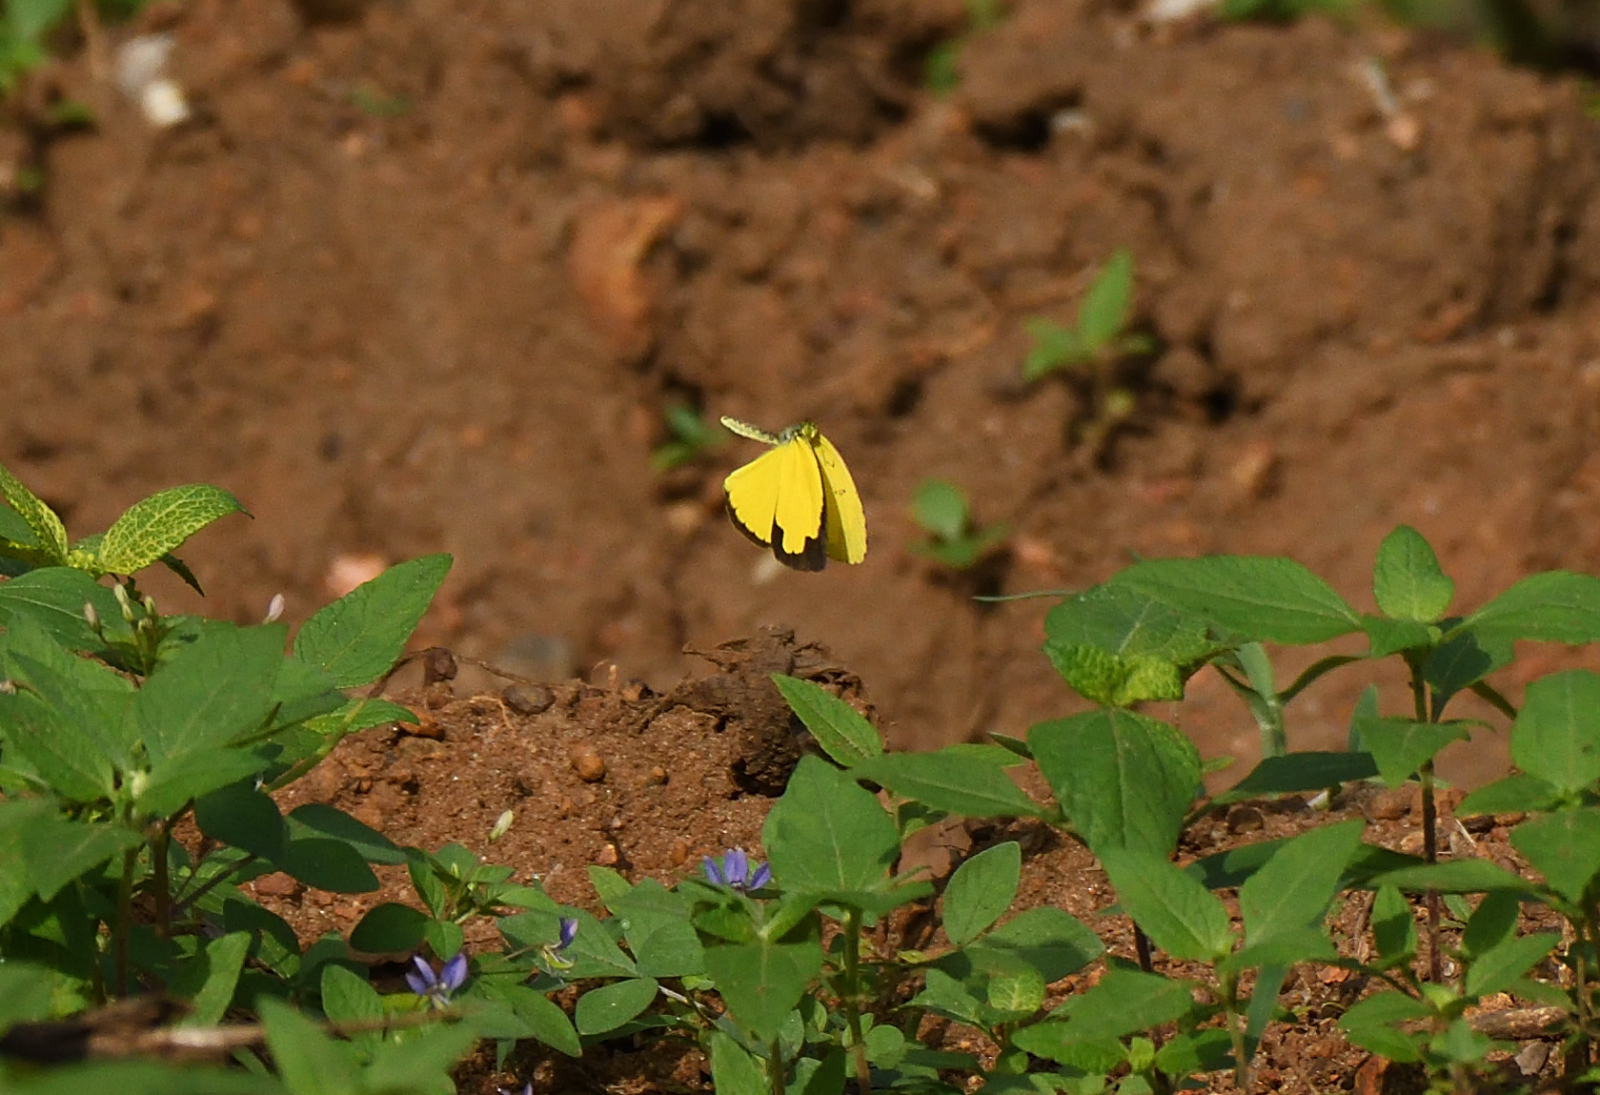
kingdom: Animalia
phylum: Arthropoda
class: Insecta
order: Lepidoptera
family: Pieridae
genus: Eurema
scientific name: Eurema hecabe
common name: Pale grass yellow
